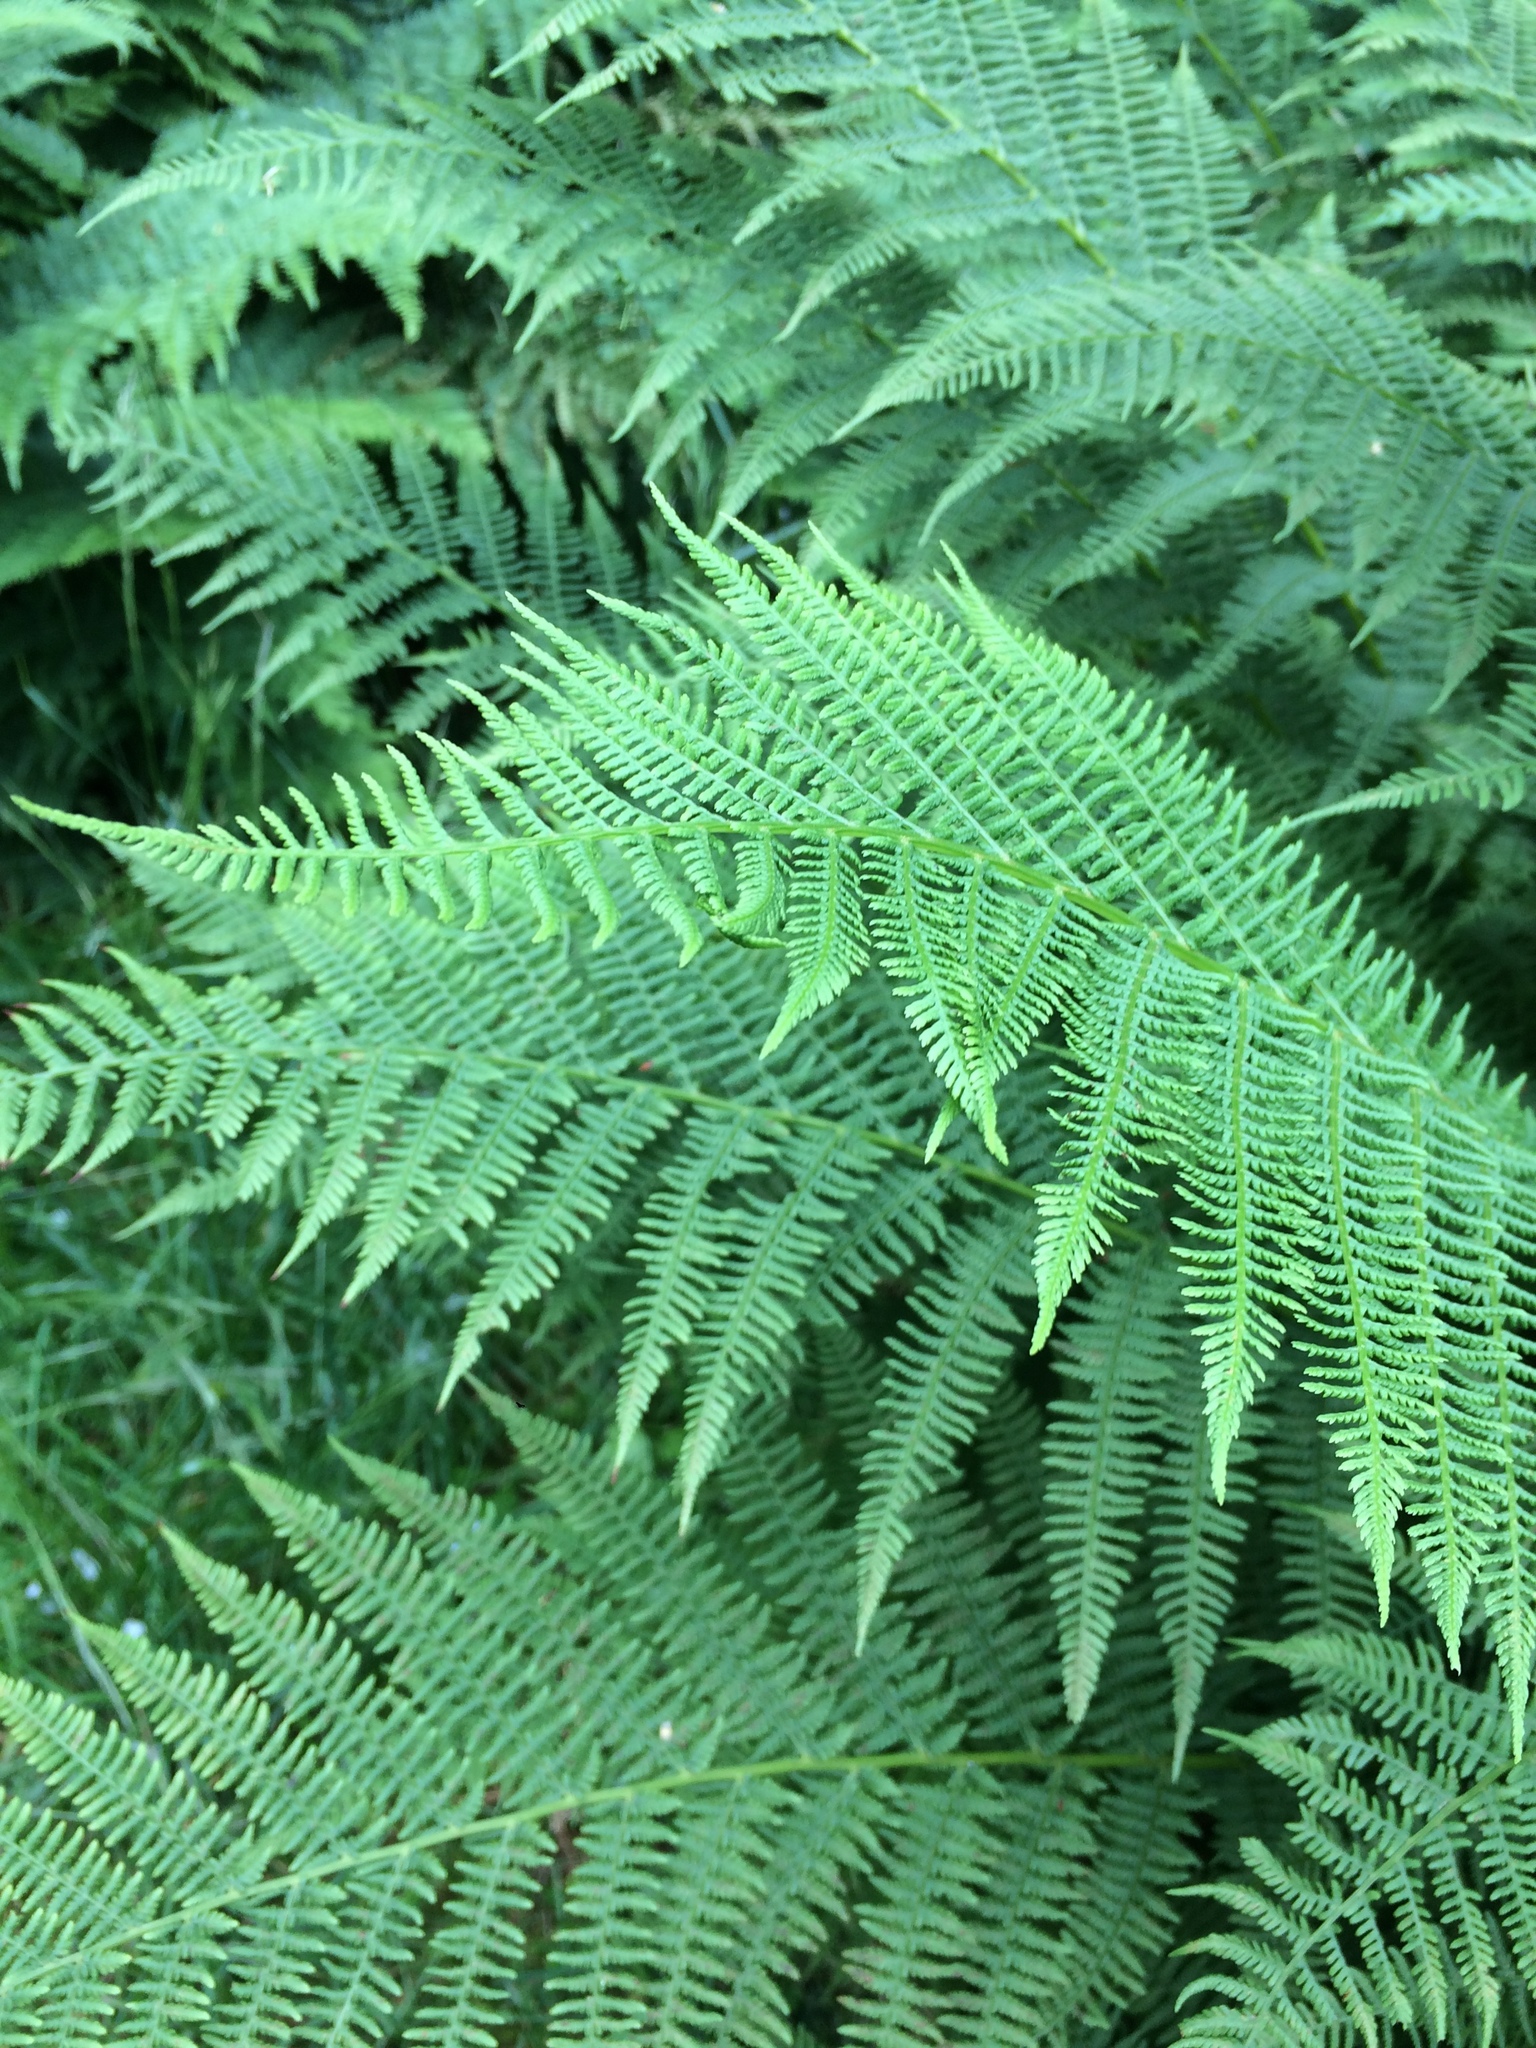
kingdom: Plantae
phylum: Tracheophyta
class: Polypodiopsida
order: Polypodiales
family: Athyriaceae
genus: Athyrium
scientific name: Athyrium filix-femina
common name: Lady fern
